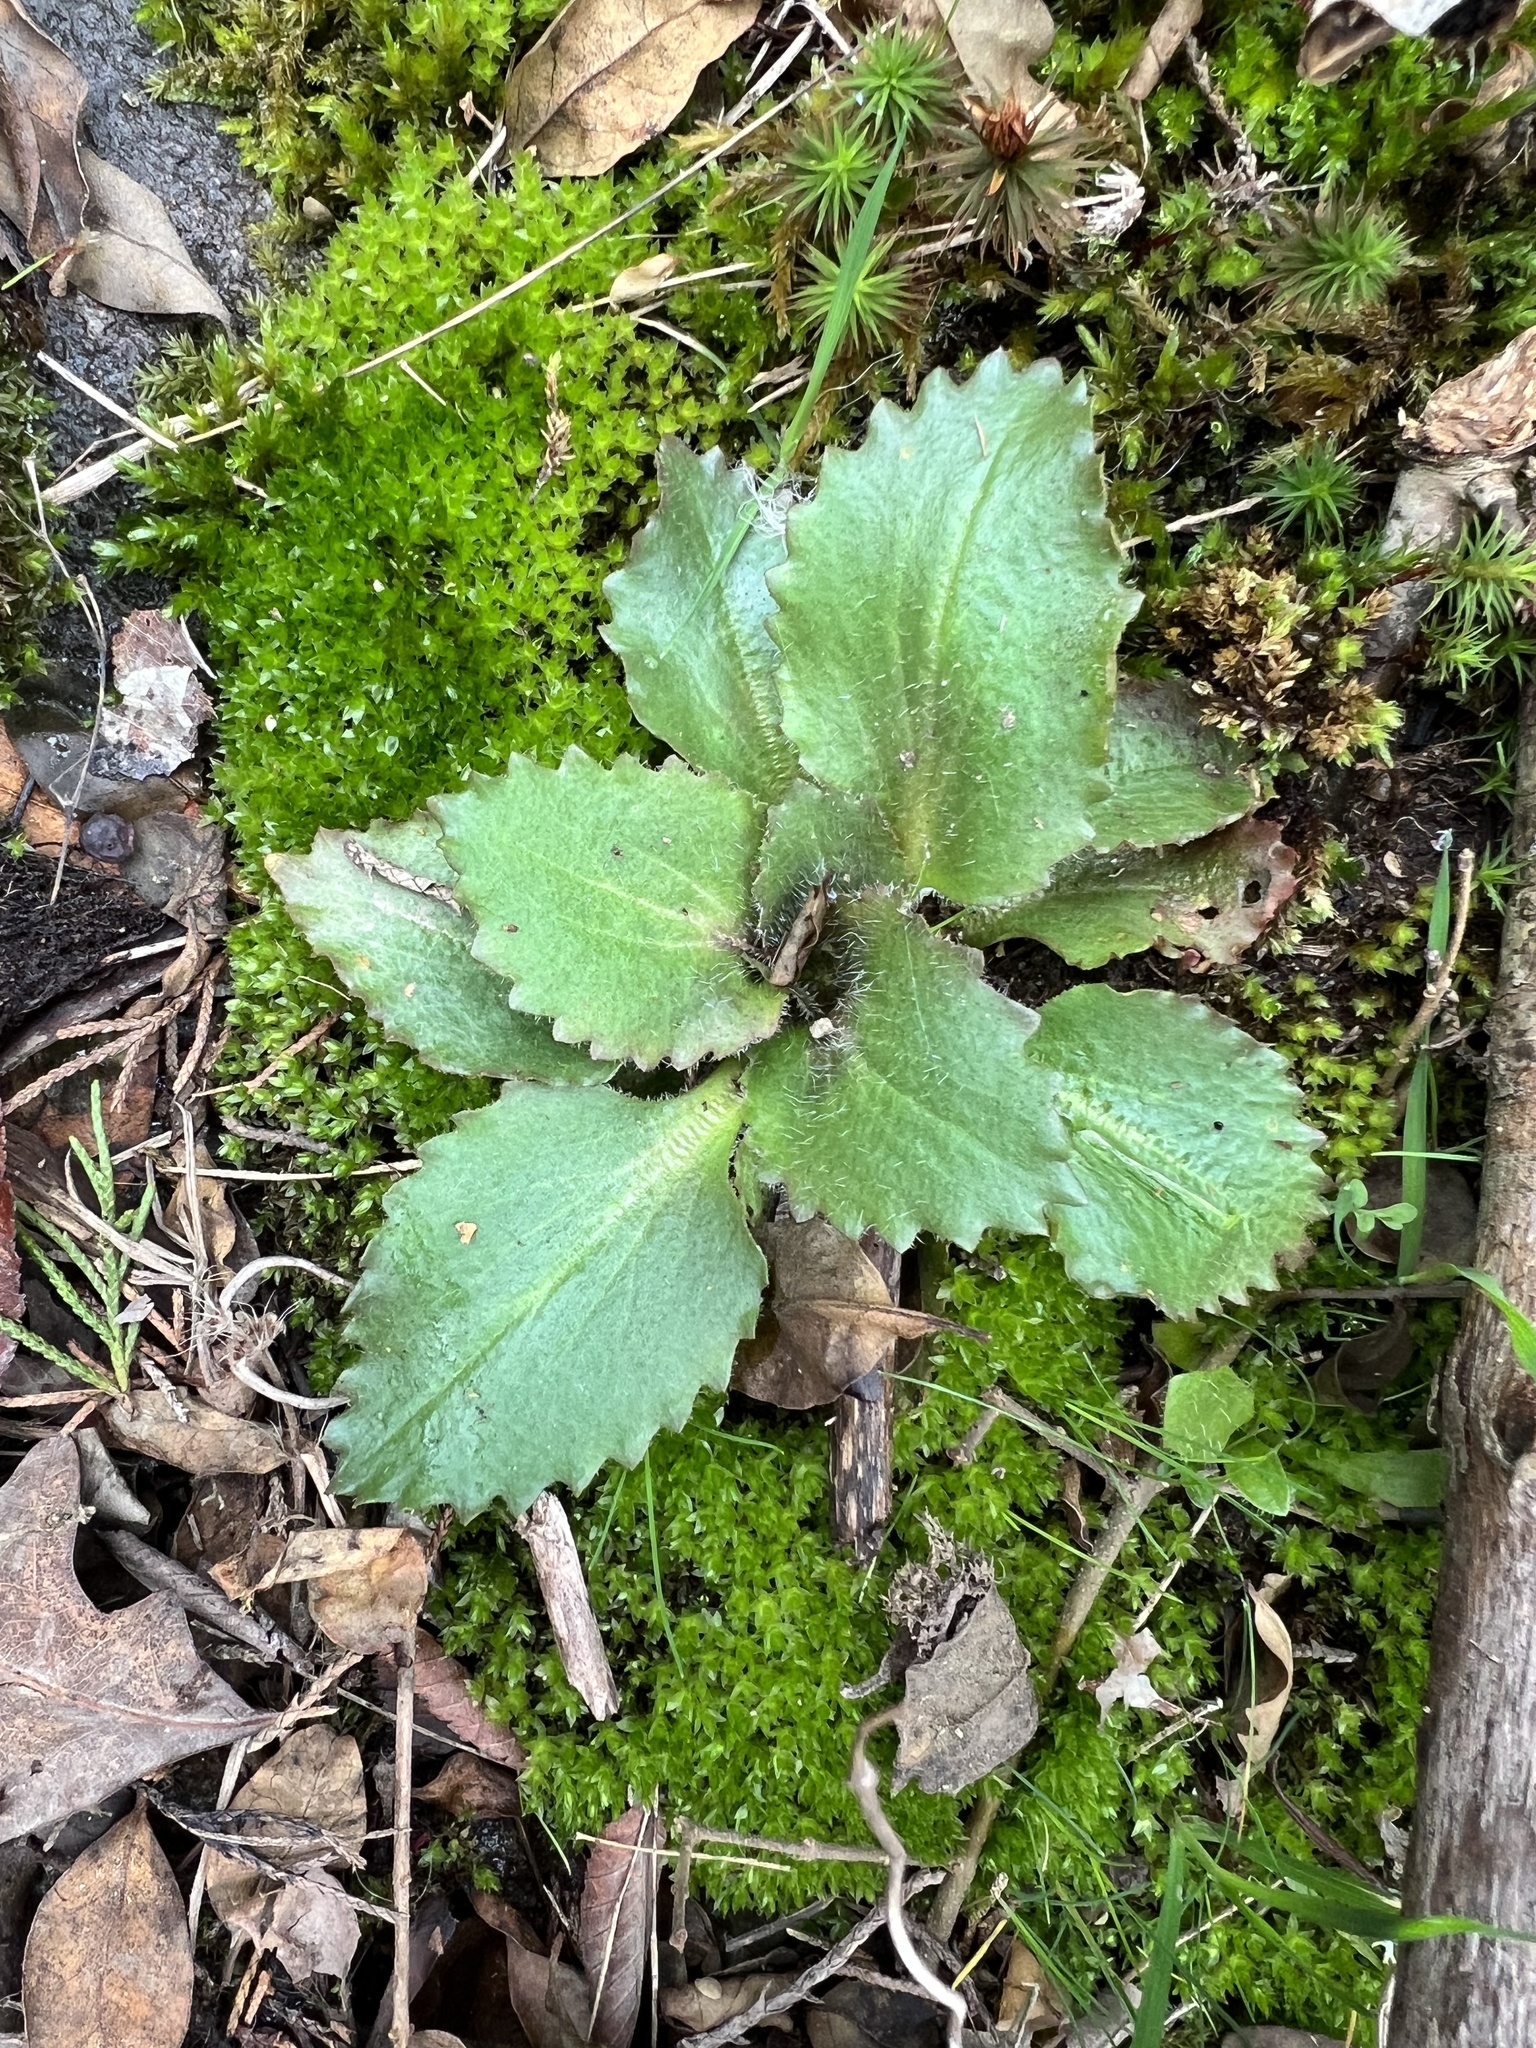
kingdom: Plantae
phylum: Tracheophyta
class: Magnoliopsida
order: Saxifragales
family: Saxifragaceae
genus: Micranthes
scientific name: Micranthes virginiensis
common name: Early saxifrage
